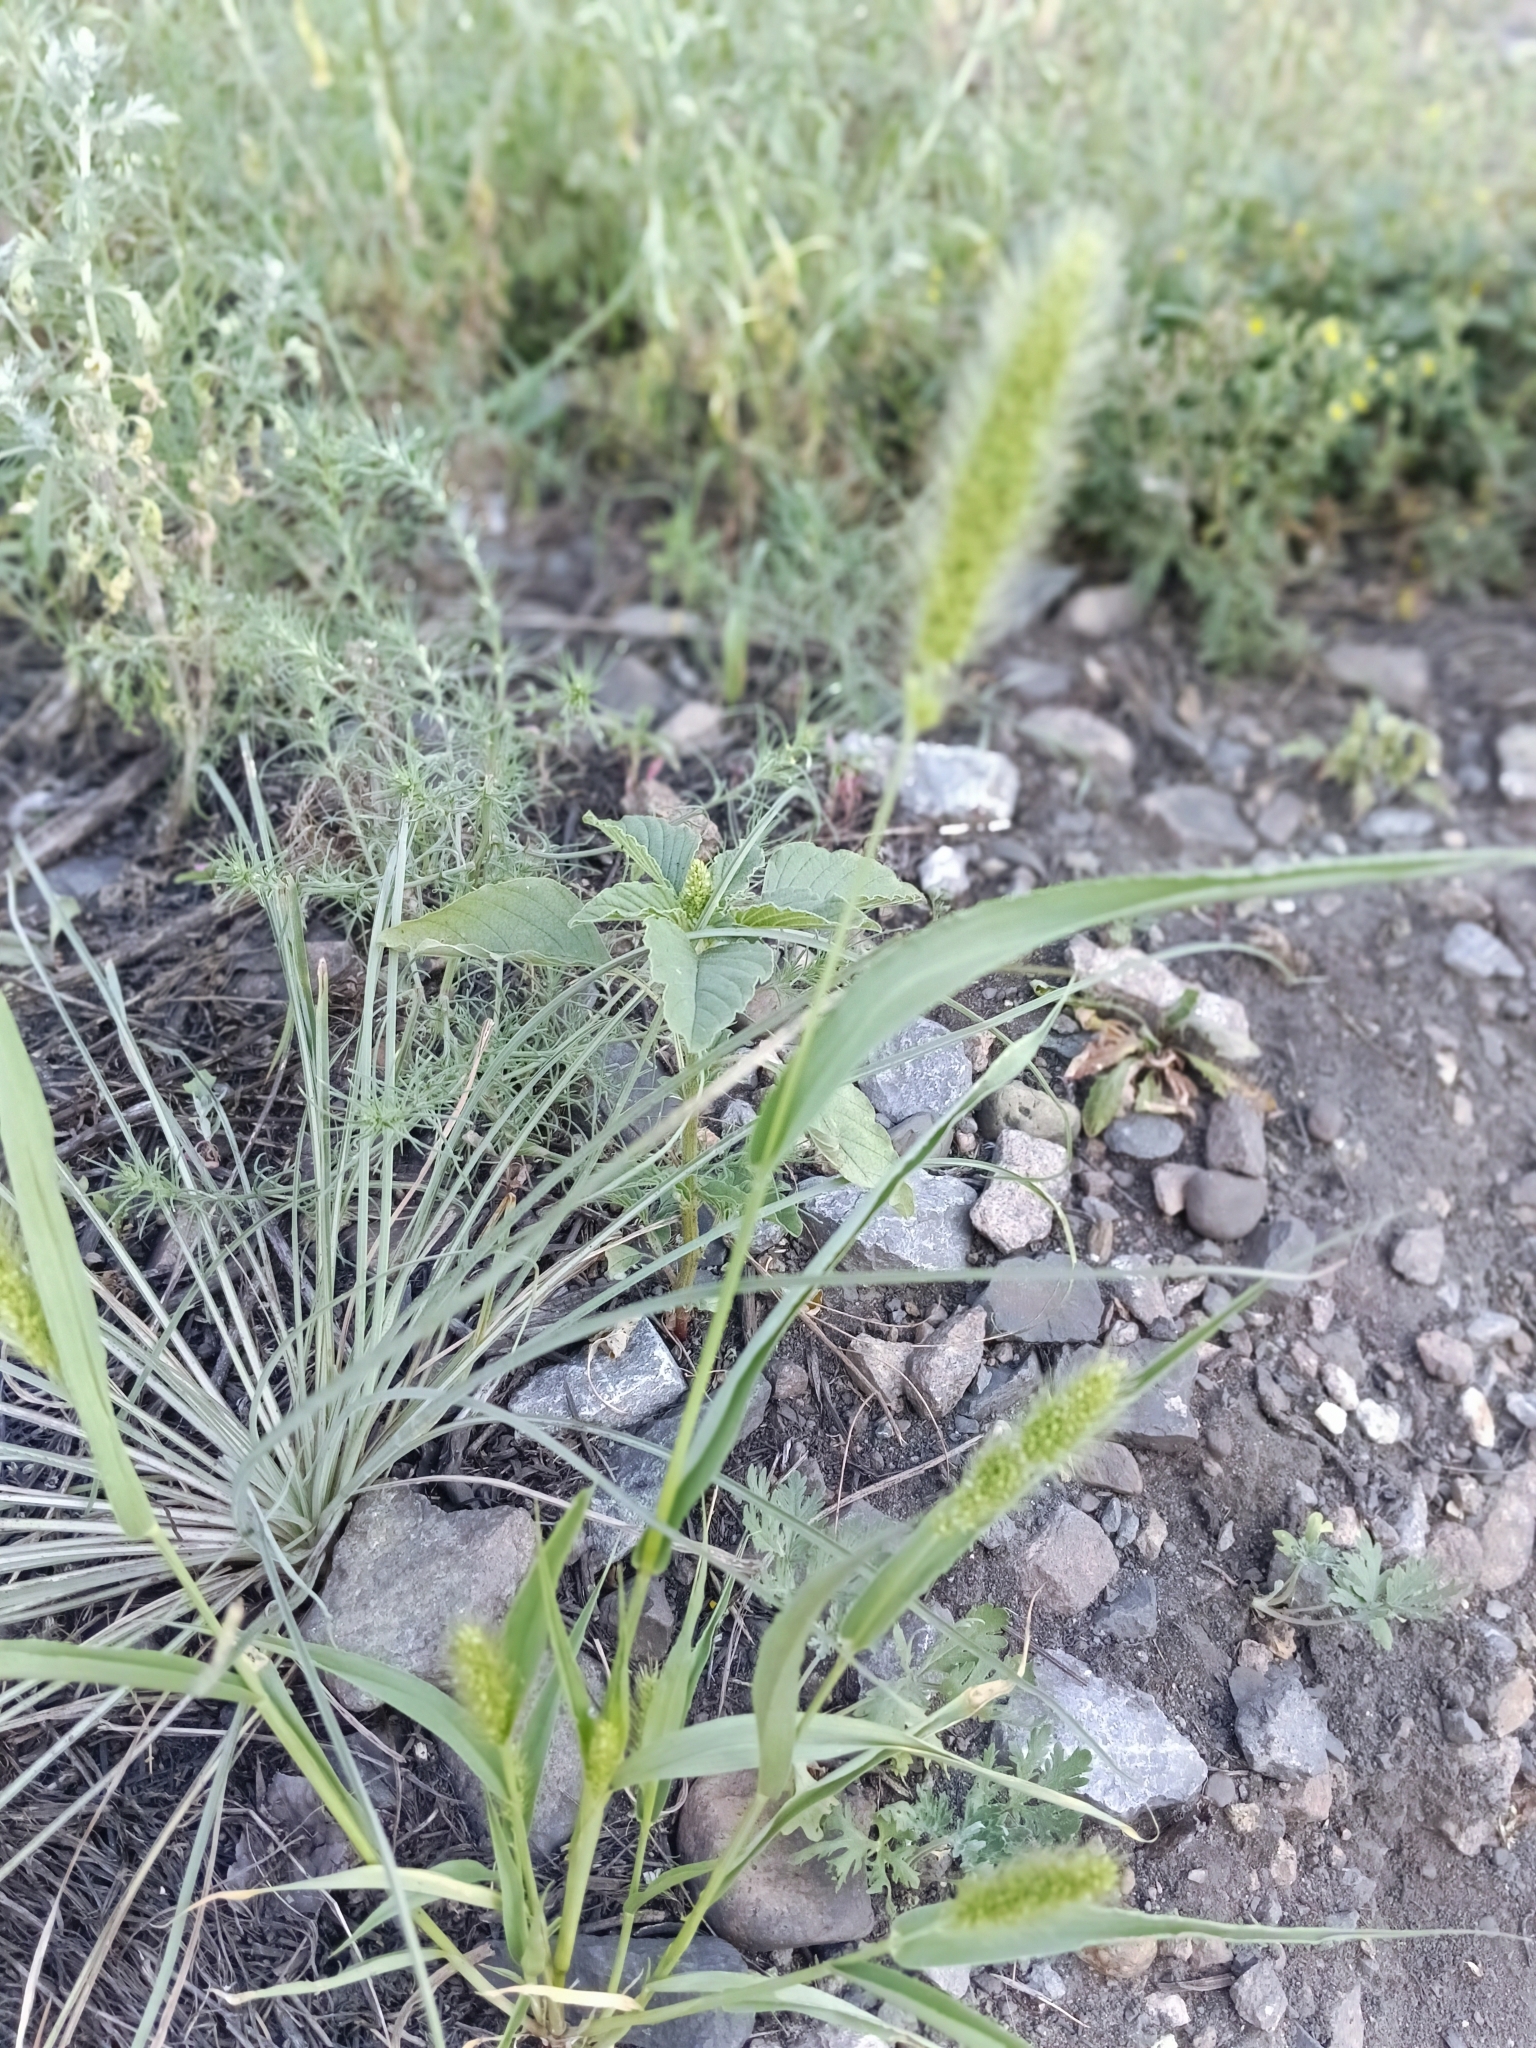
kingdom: Plantae
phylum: Tracheophyta
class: Liliopsida
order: Poales
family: Poaceae
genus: Setaria
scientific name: Setaria viridis
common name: Green bristlegrass
